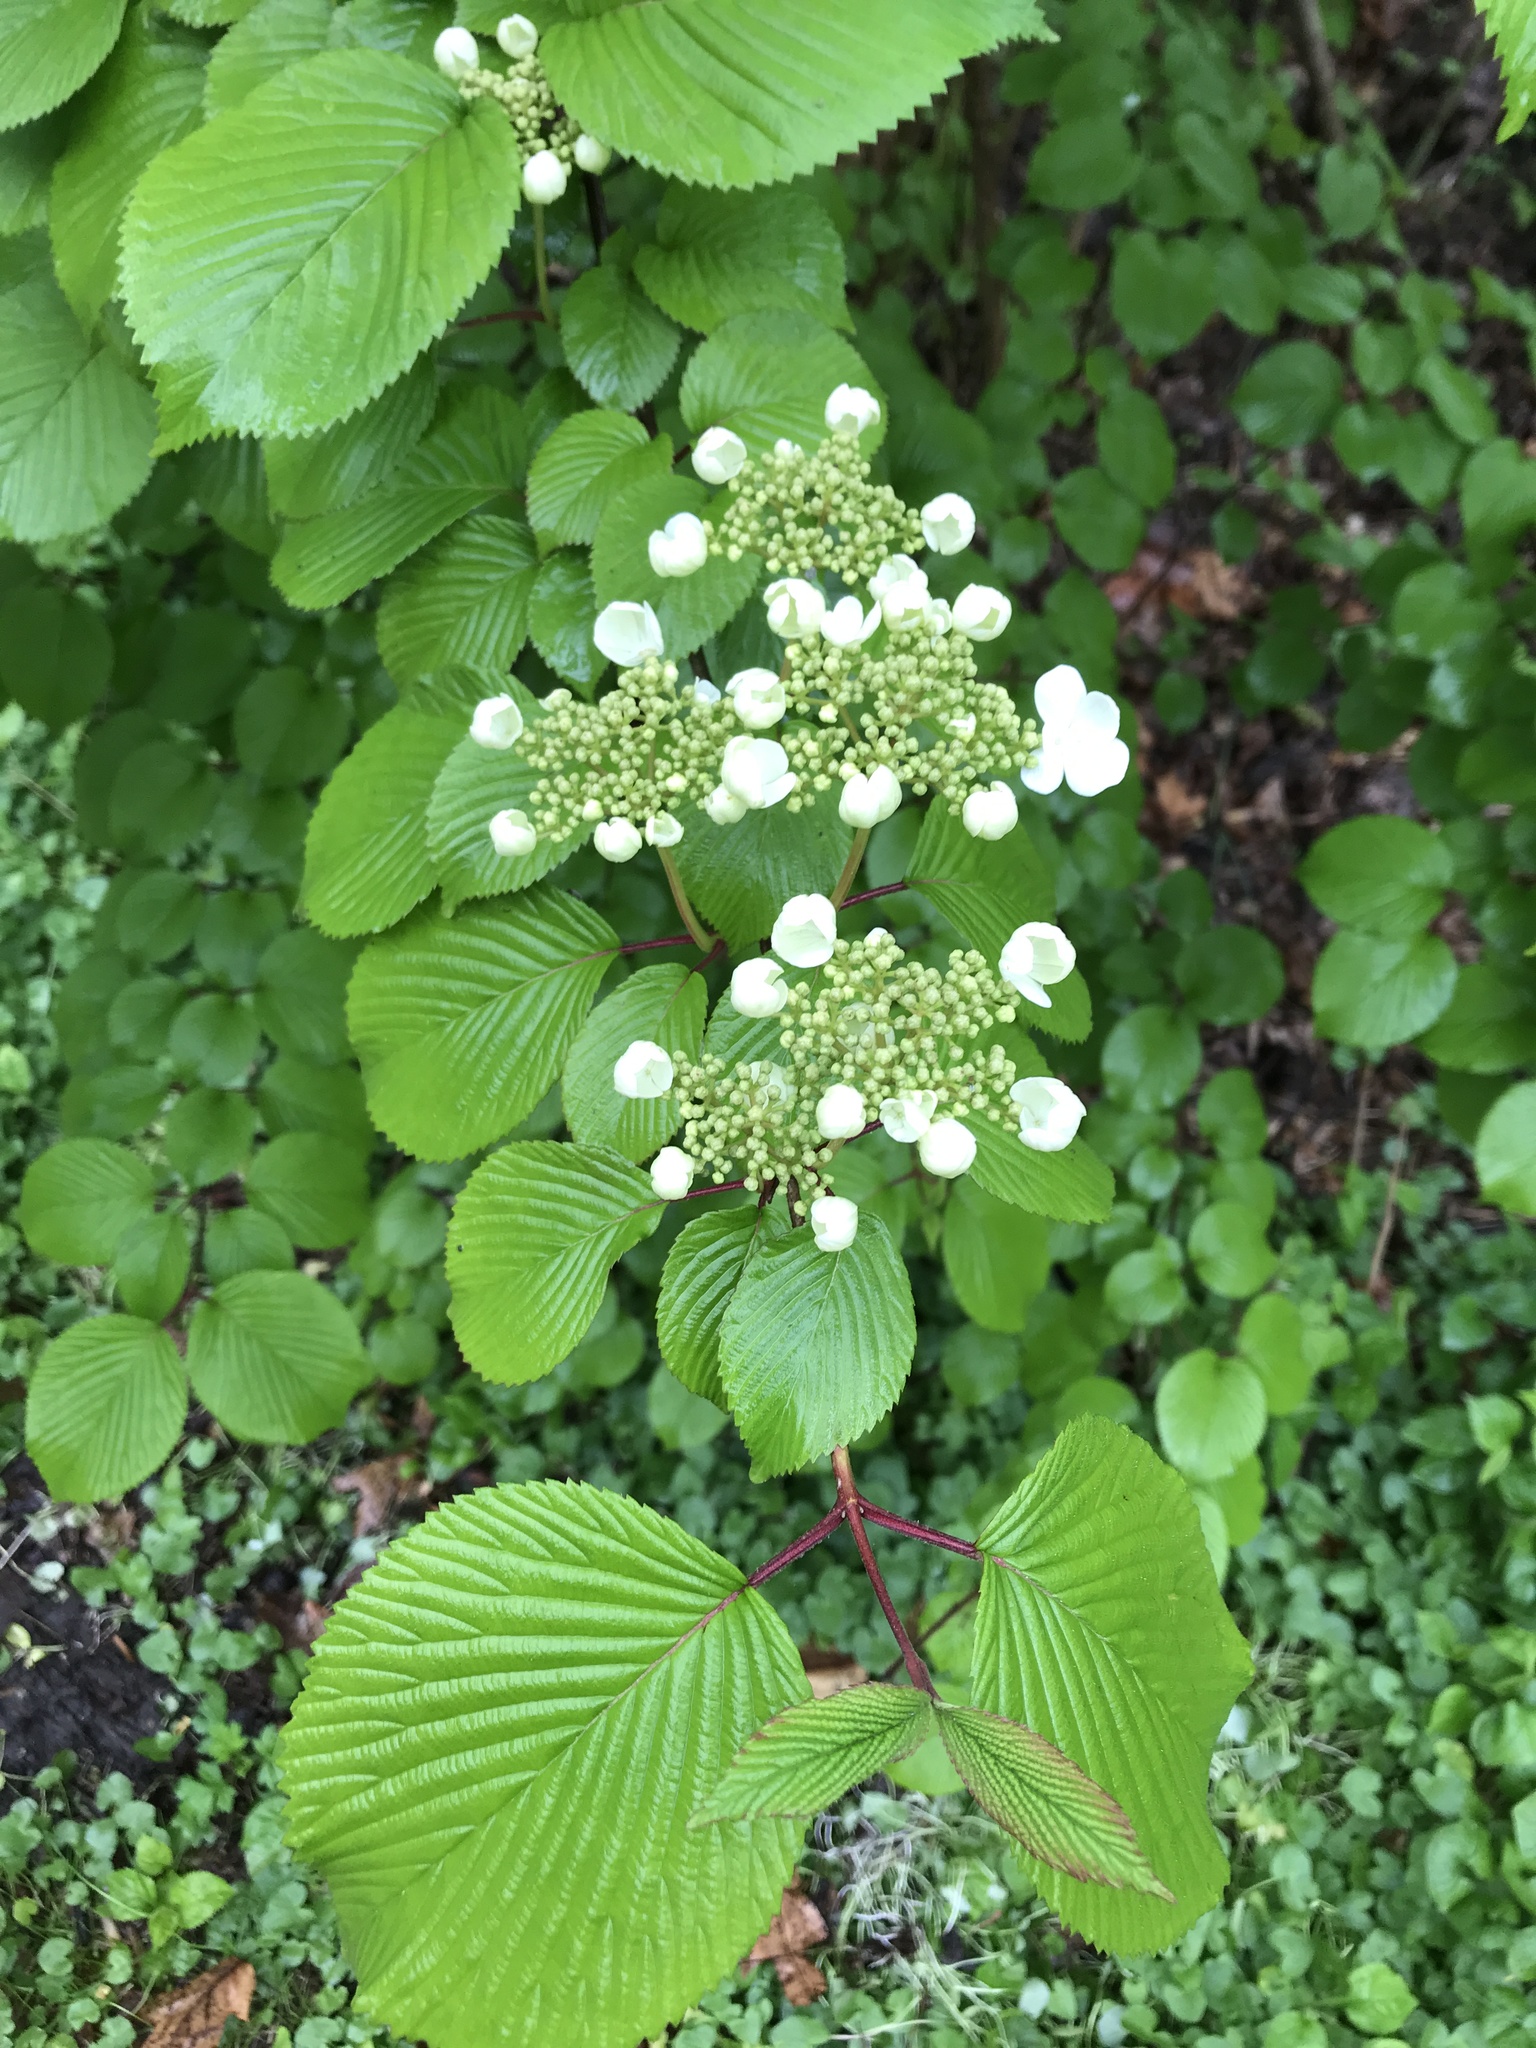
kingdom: Plantae
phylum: Tracheophyta
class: Magnoliopsida
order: Dipsacales
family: Viburnaceae
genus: Viburnum
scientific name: Viburnum plicatum
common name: Japanese snowball
